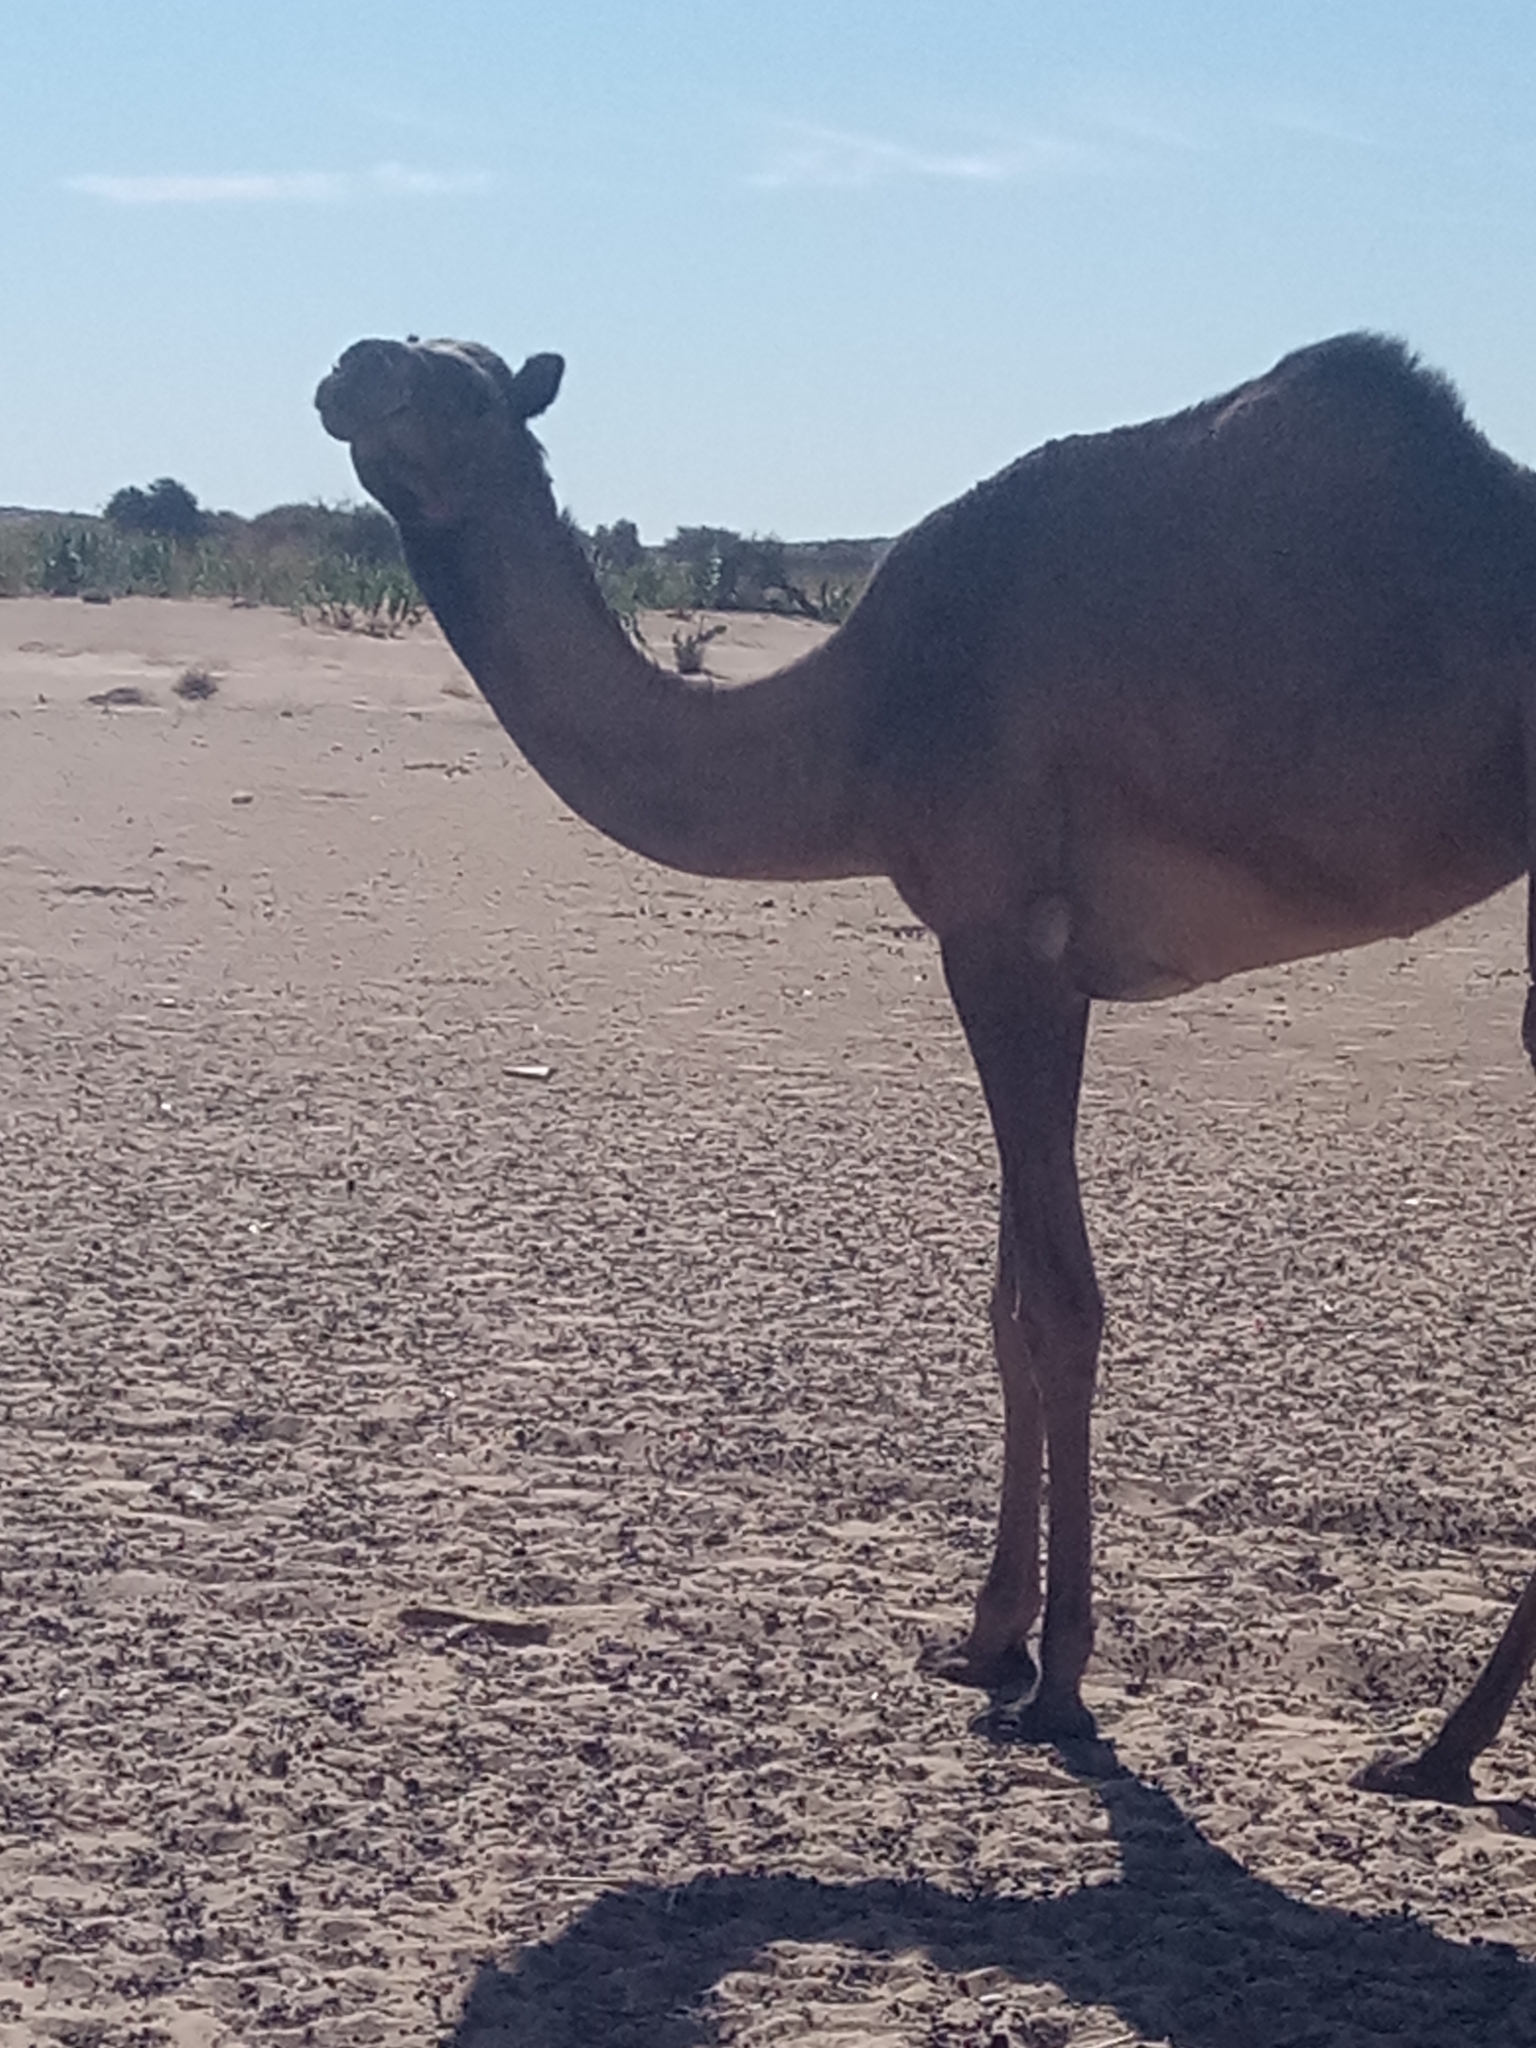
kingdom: Animalia
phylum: Chordata
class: Mammalia
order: Artiodactyla
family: Camelidae
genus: Camelus
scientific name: Camelus dromedarius
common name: One-humped camel
